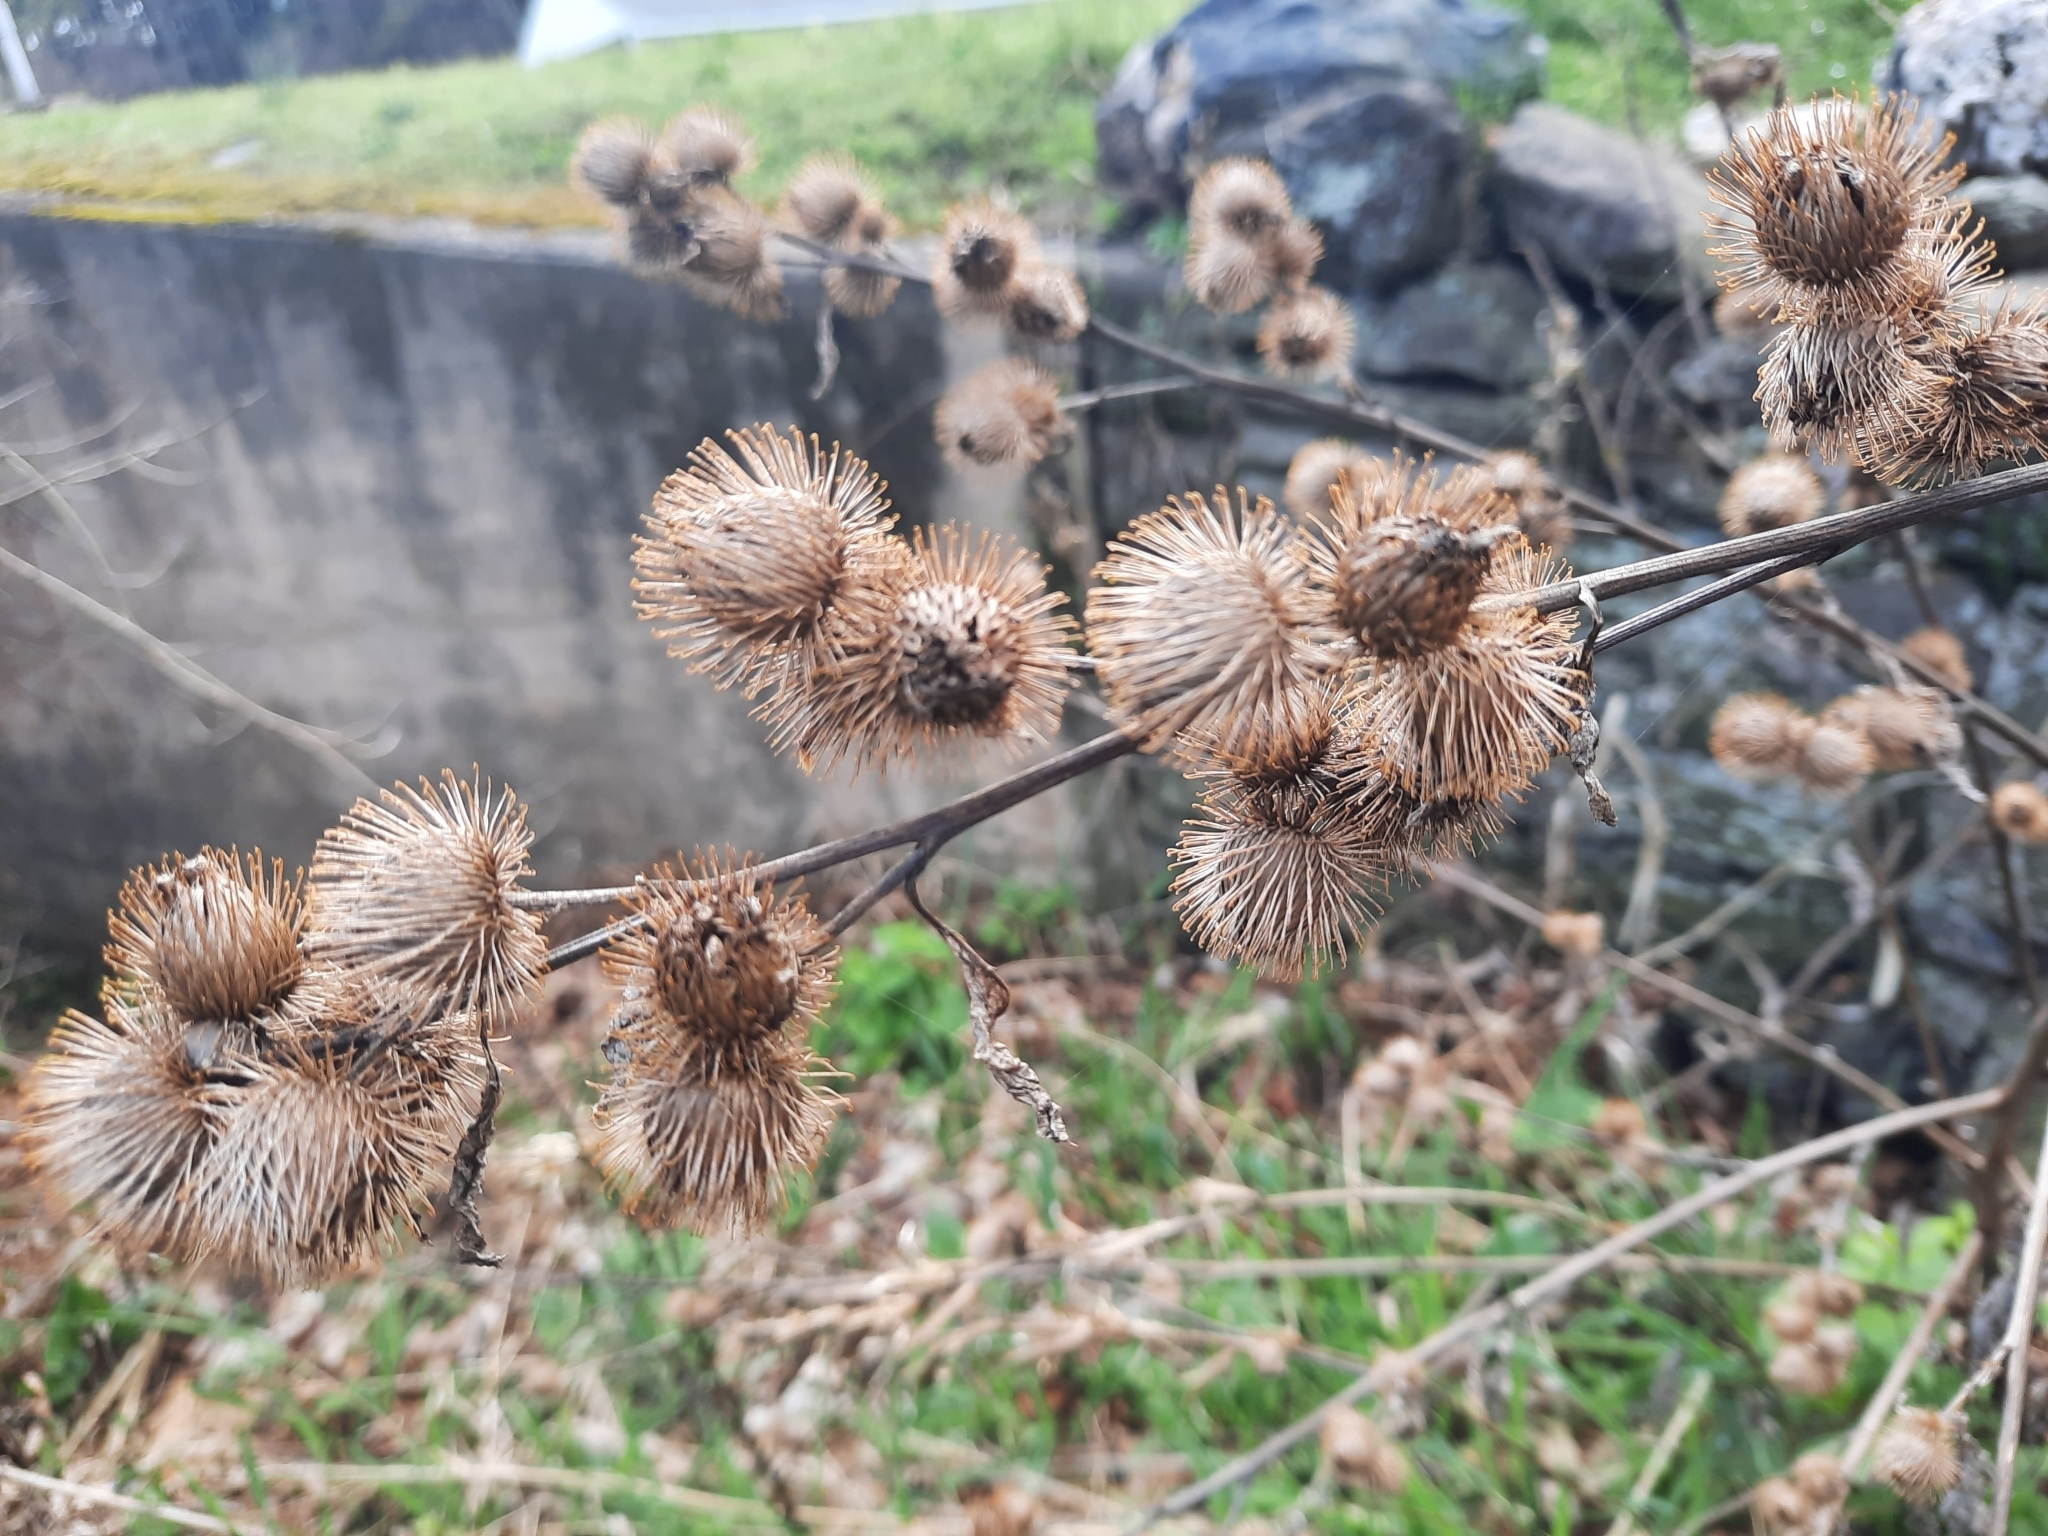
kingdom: Plantae
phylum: Tracheophyta
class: Magnoliopsida
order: Asterales
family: Asteraceae
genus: Arctium
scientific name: Arctium minus
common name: Lesser burdock
